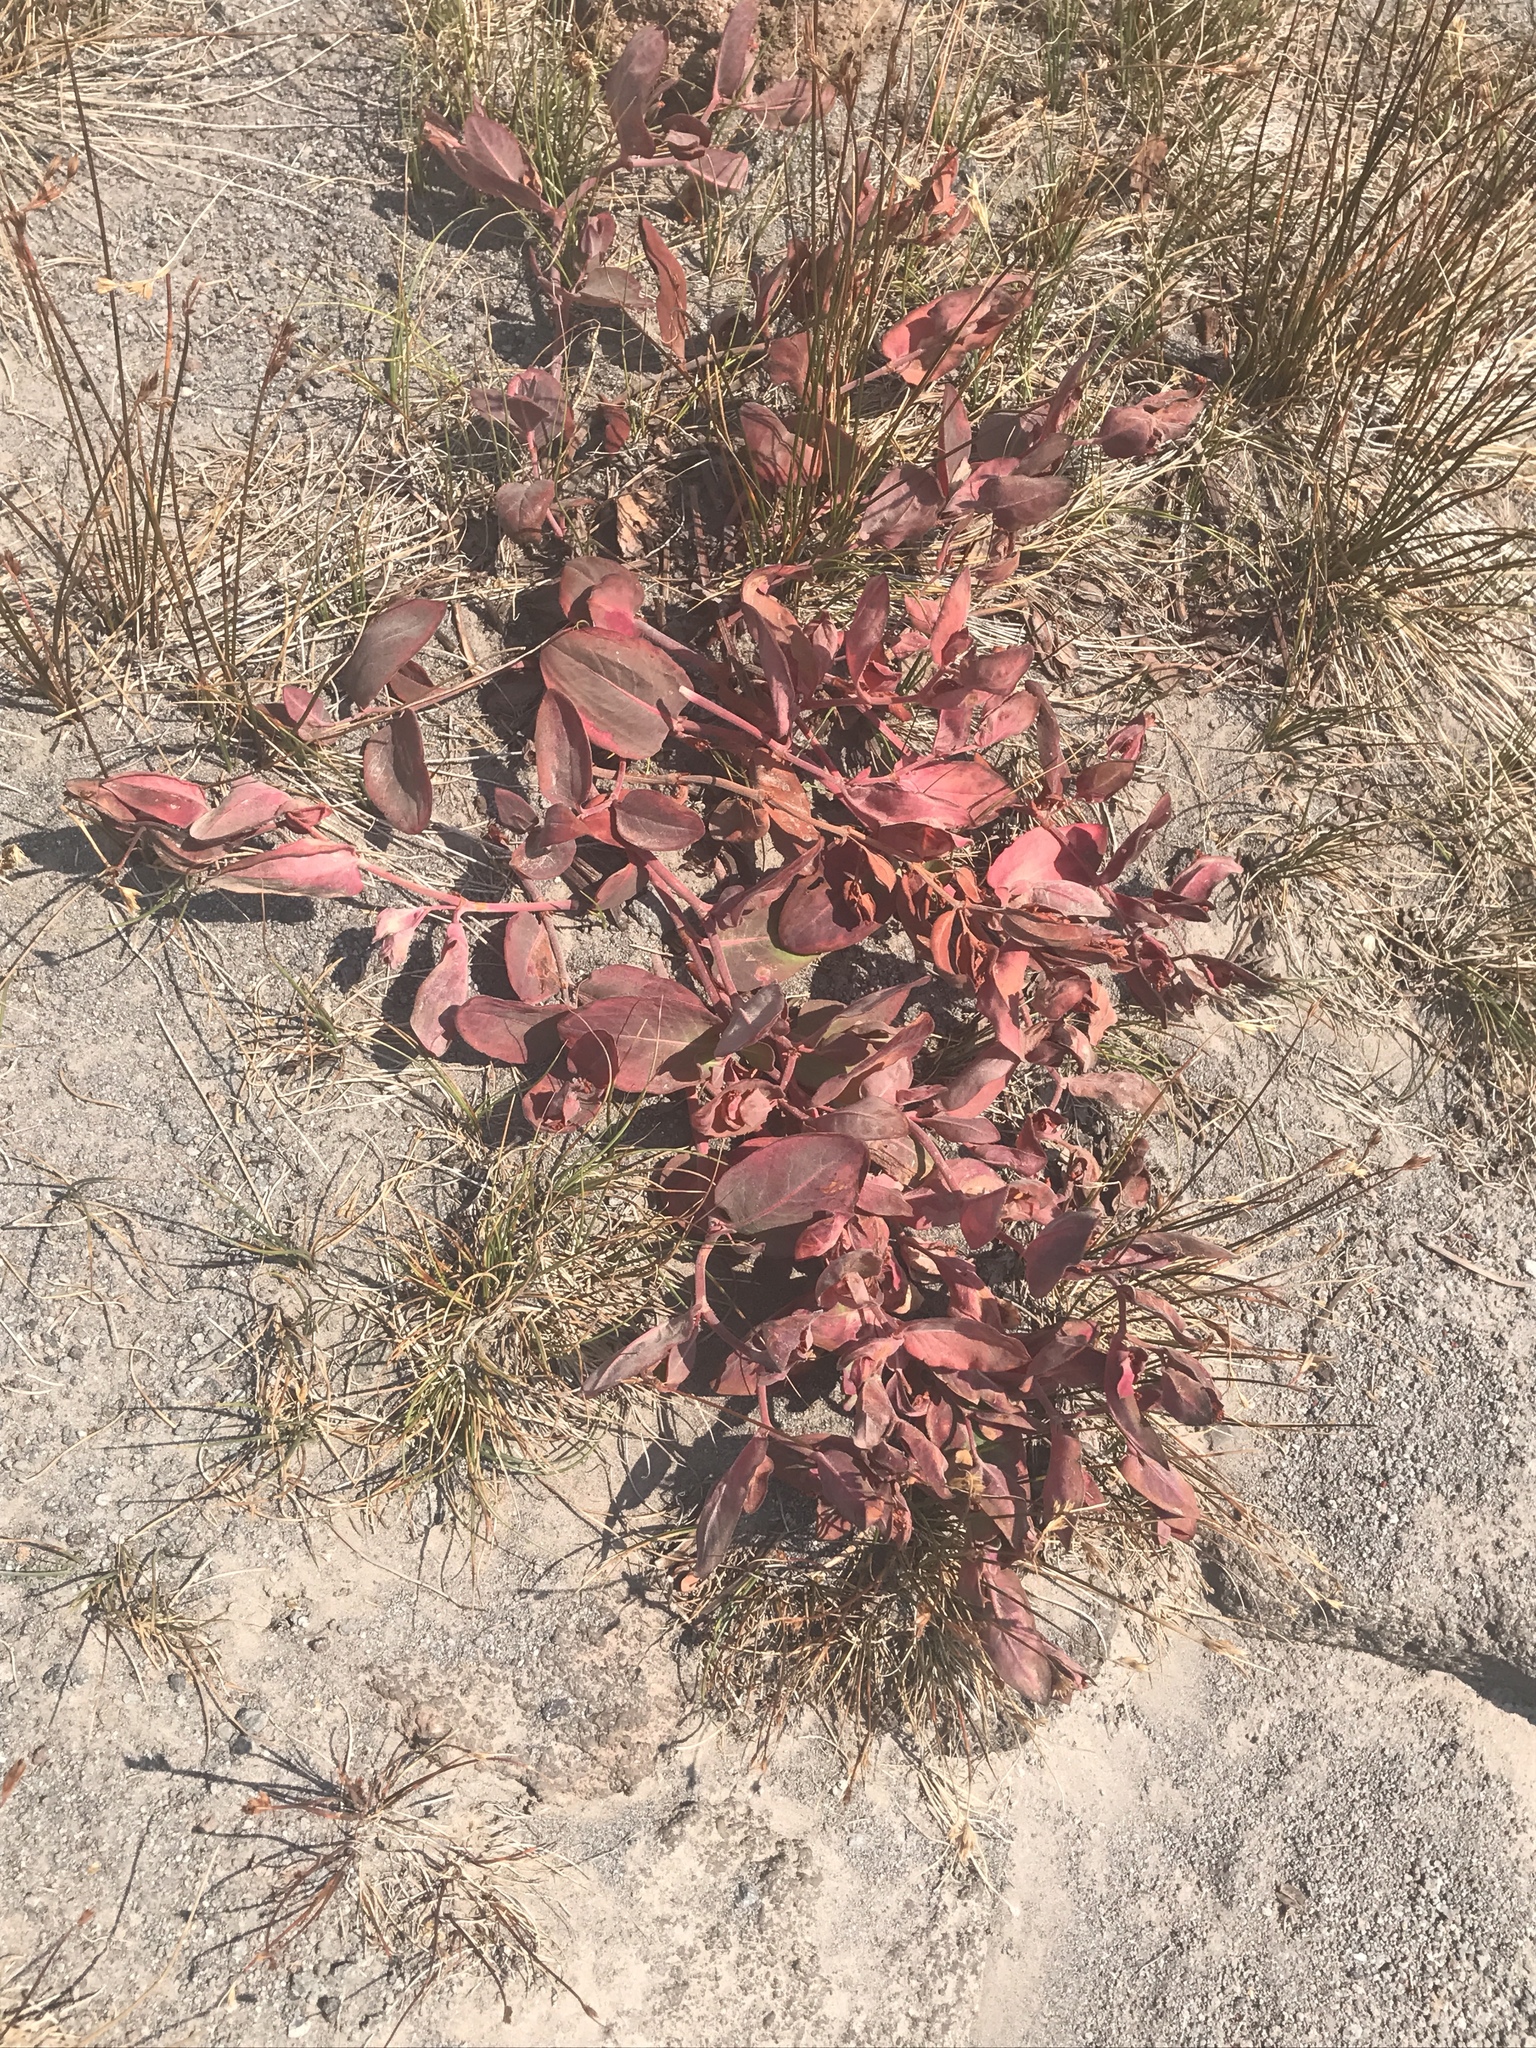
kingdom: Plantae
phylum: Tracheophyta
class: Magnoliopsida
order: Caryophyllales
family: Polygonaceae
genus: Koenigia
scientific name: Koenigia davisiae
